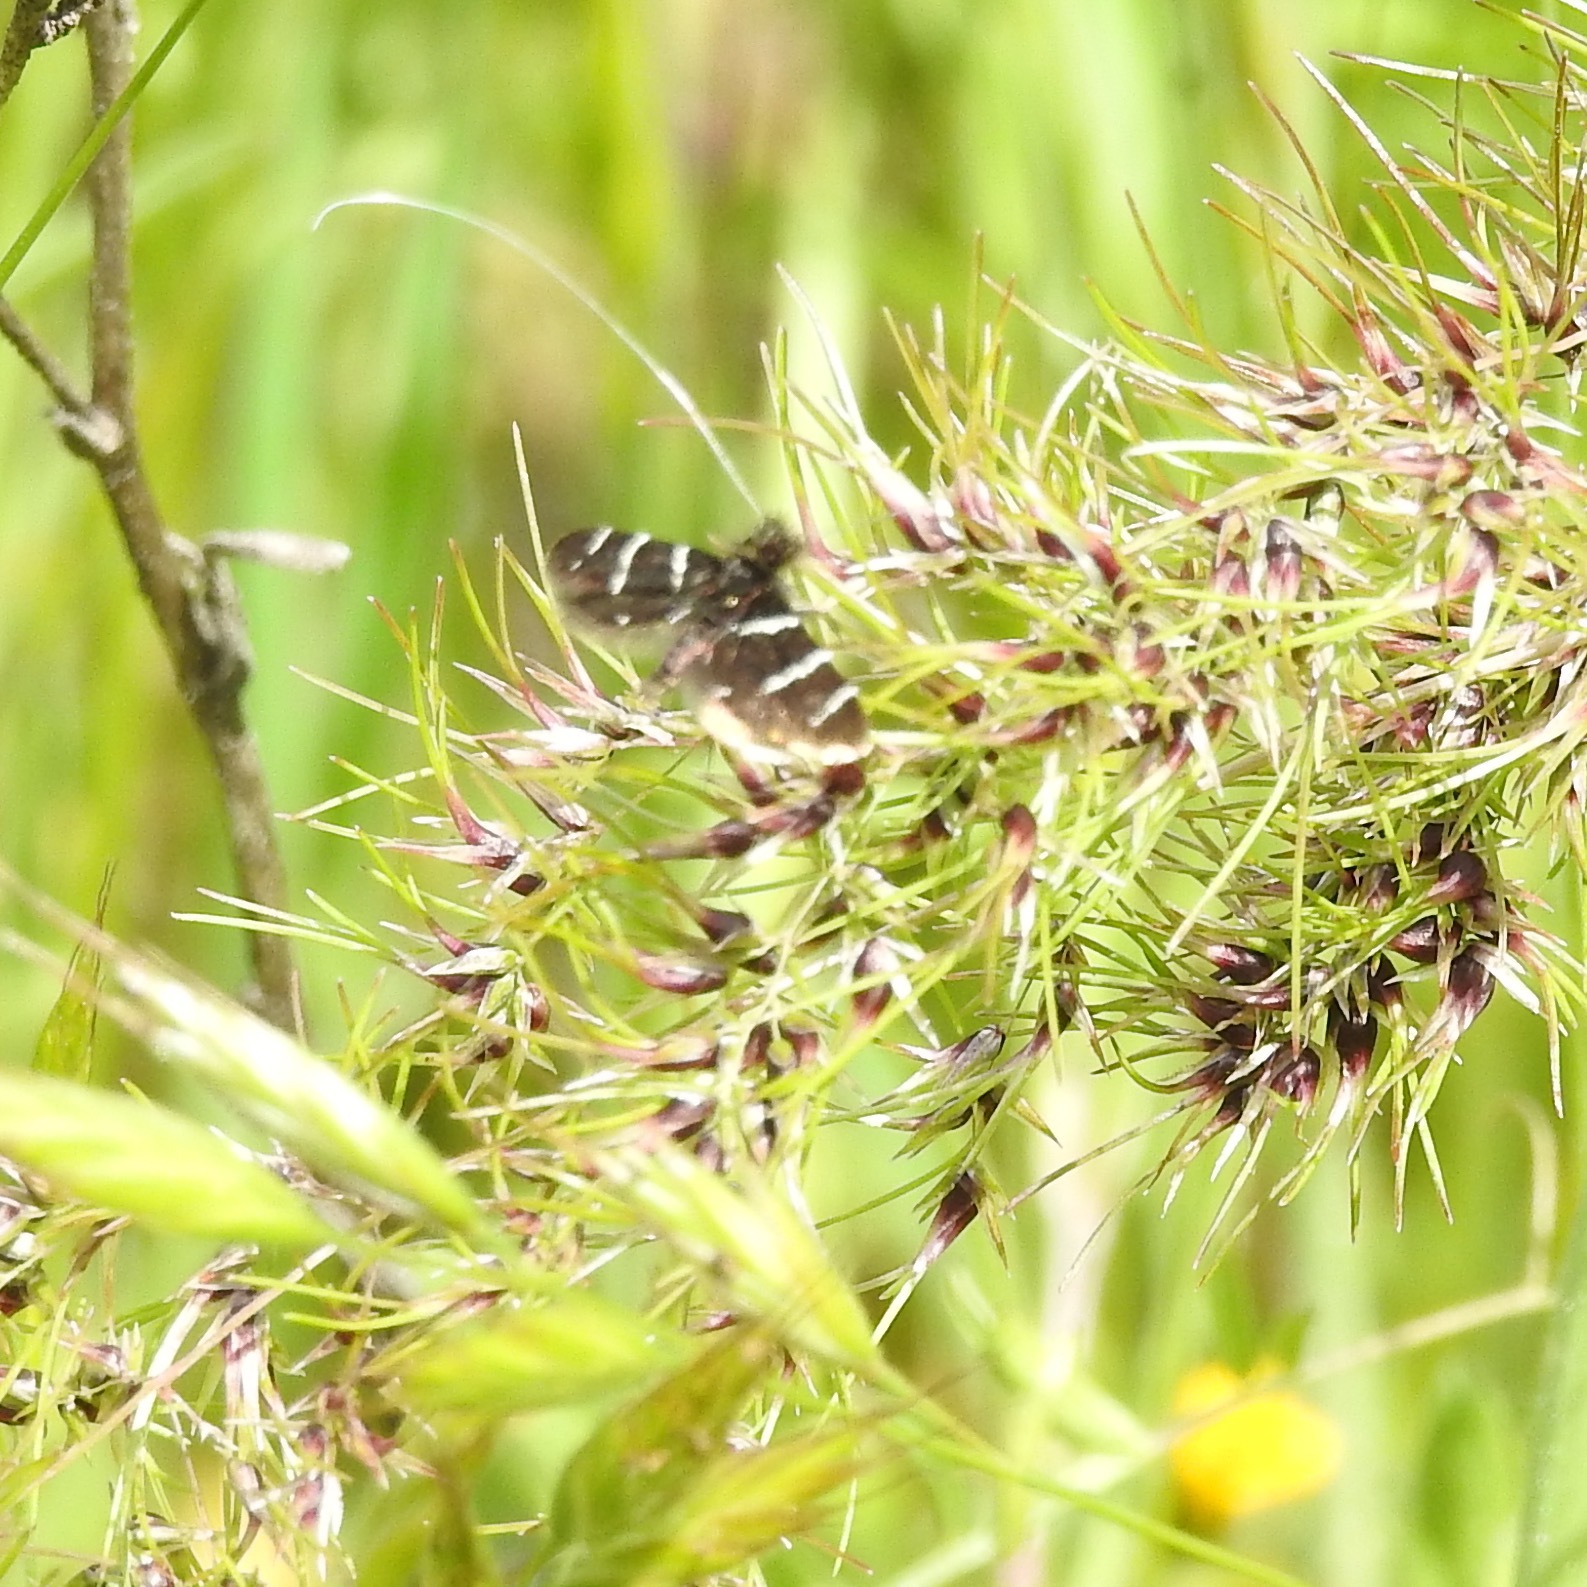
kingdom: Animalia
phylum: Arthropoda
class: Insecta
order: Lepidoptera
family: Adelidae
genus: Adela
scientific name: Adela trigrapha
